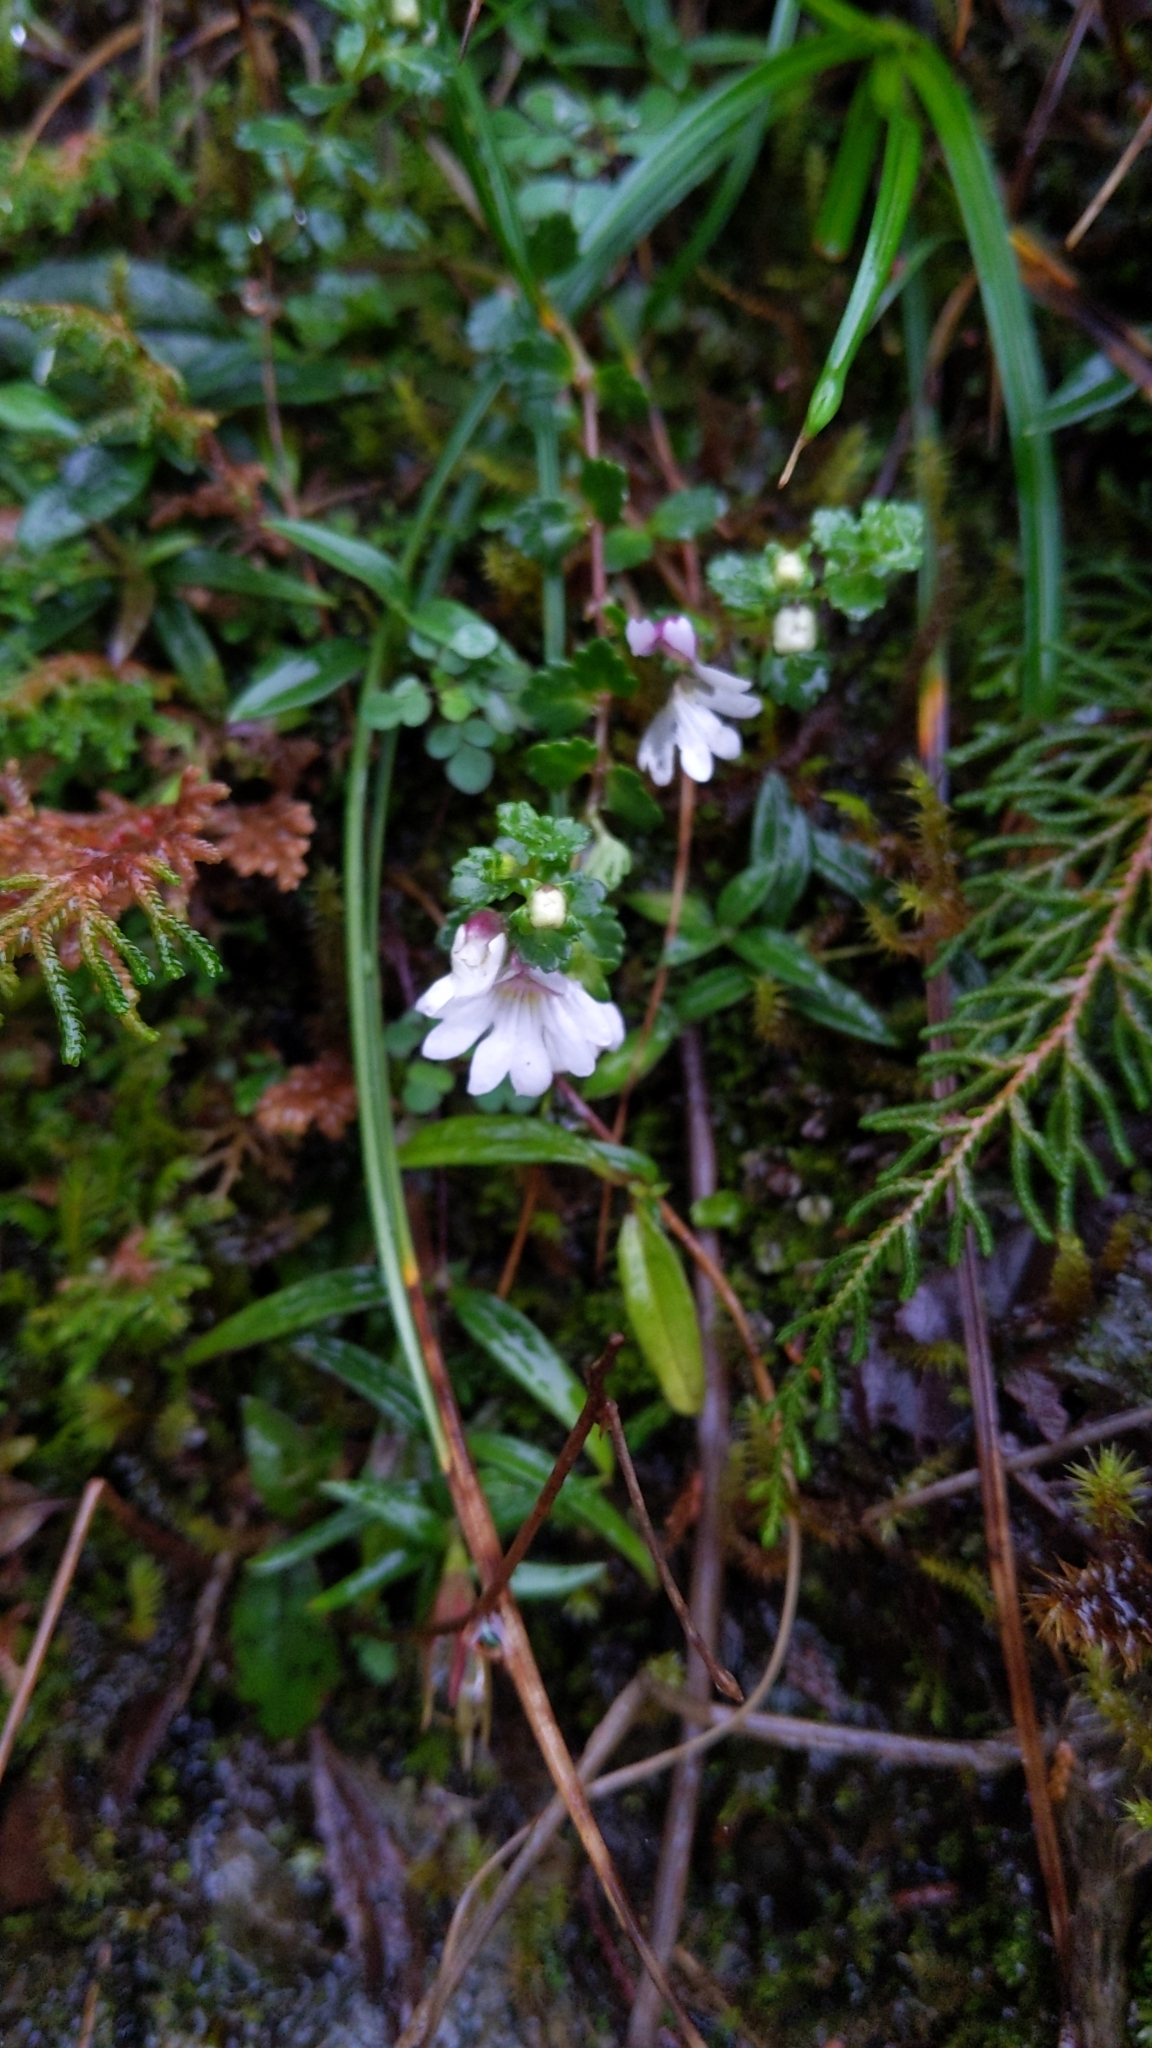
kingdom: Plantae
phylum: Tracheophyta
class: Magnoliopsida
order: Lamiales
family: Orobanchaceae
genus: Euphrasia
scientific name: Euphrasia transmorrisonensis
